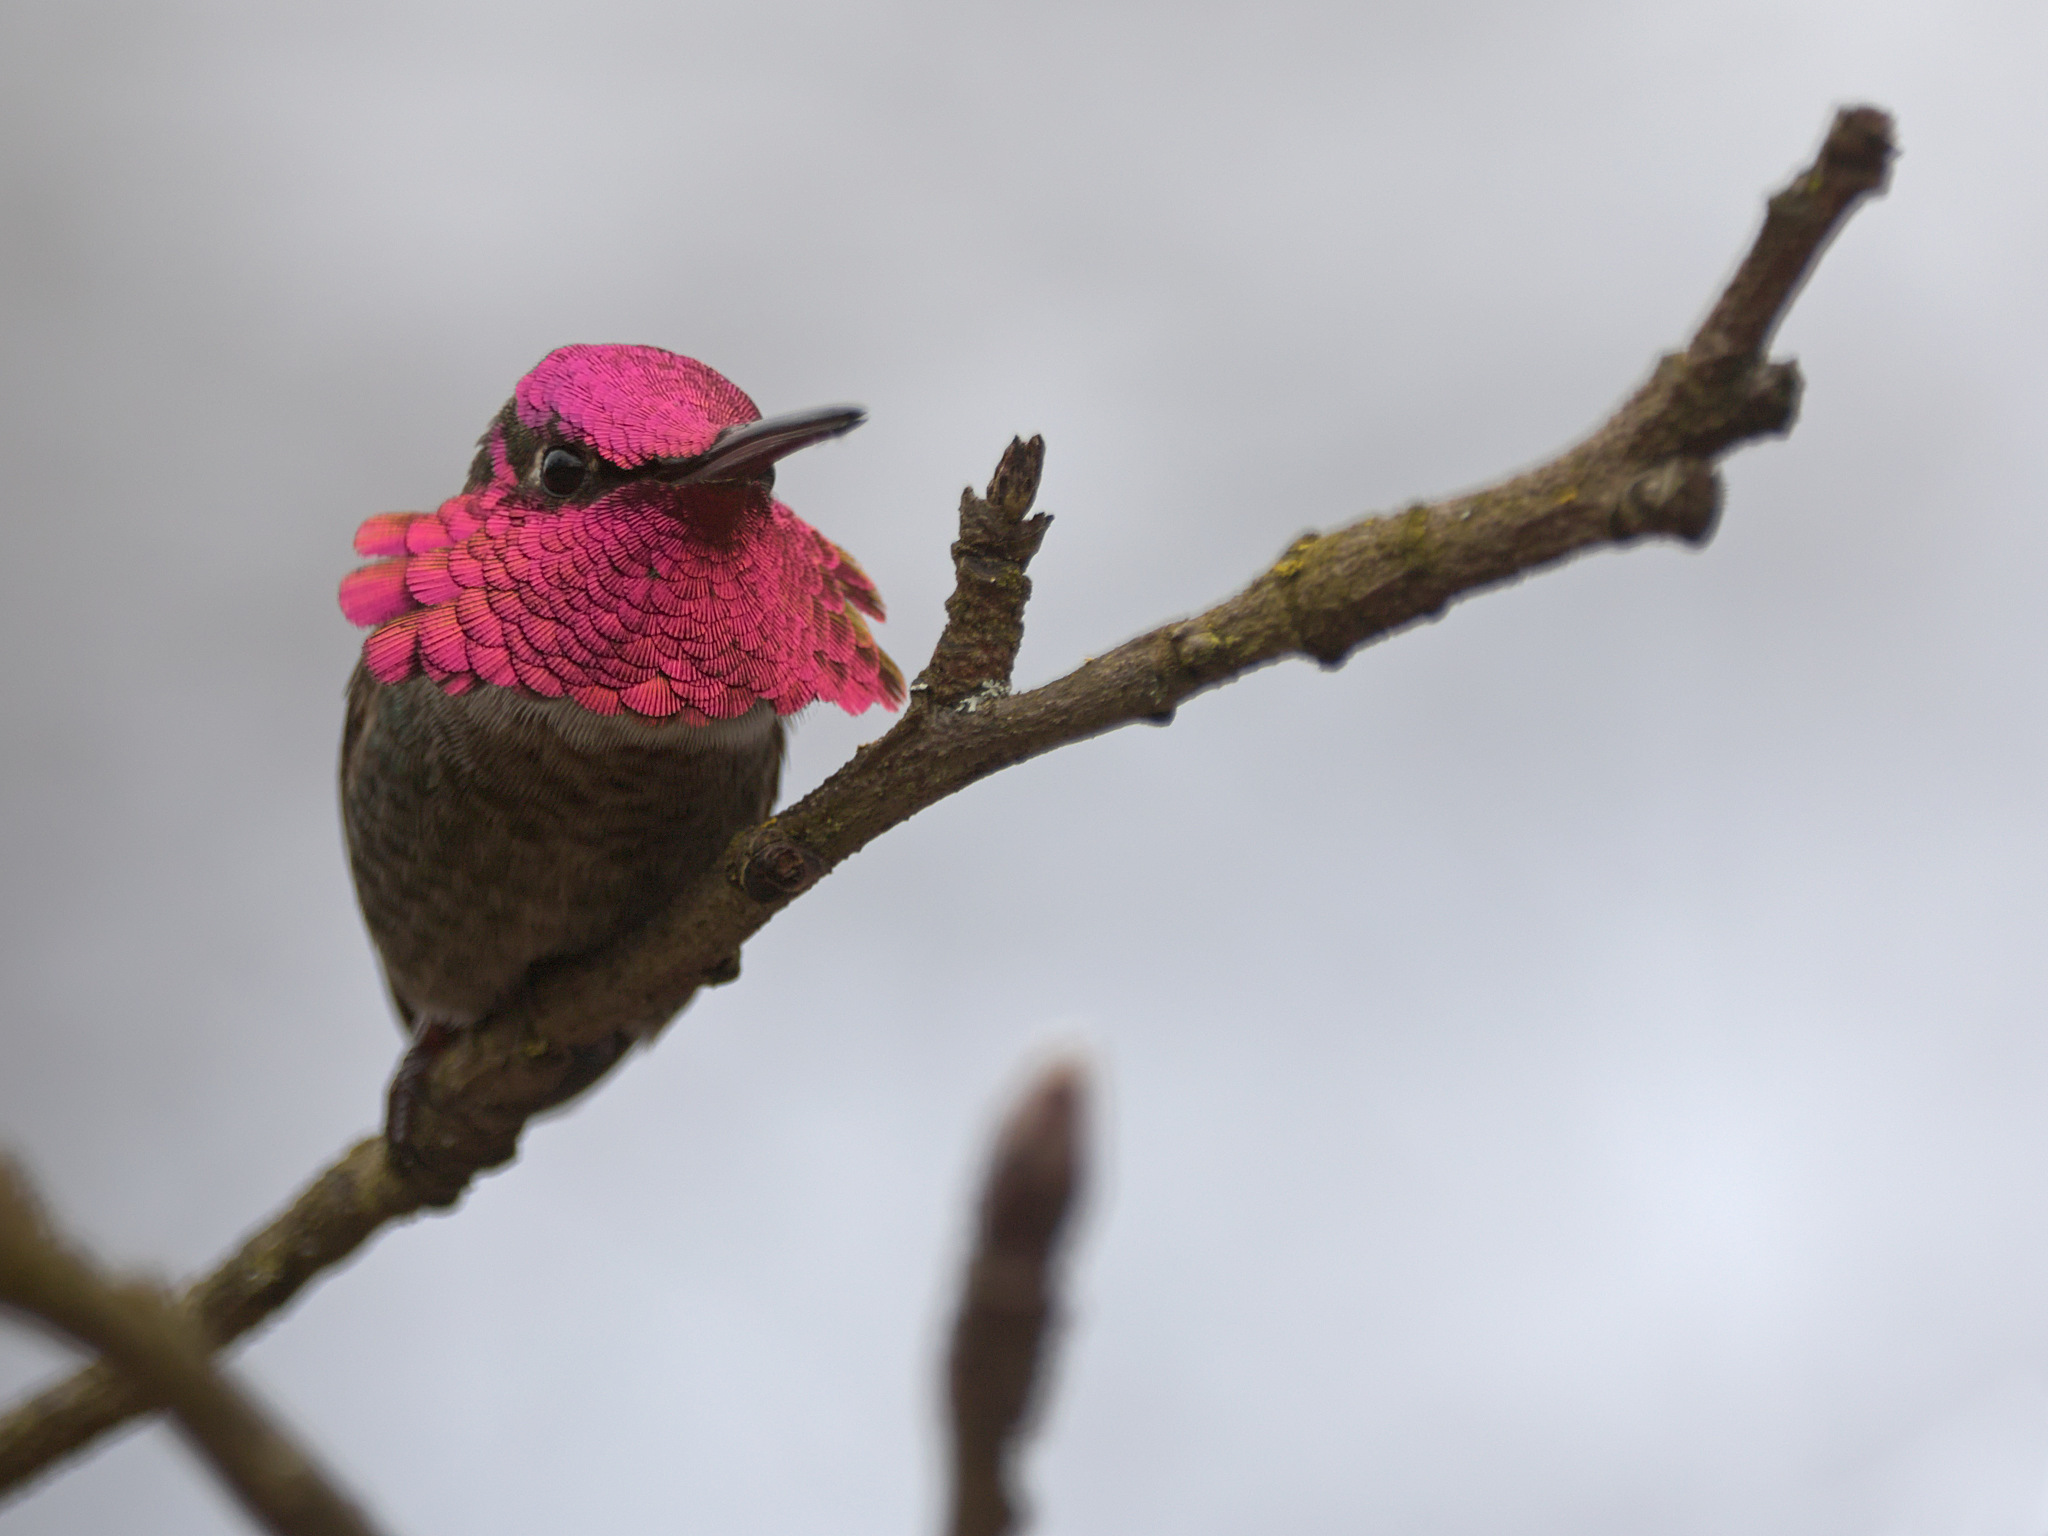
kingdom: Animalia
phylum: Chordata
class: Aves
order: Apodiformes
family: Trochilidae
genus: Calypte
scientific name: Calypte anna
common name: Anna's hummingbird
